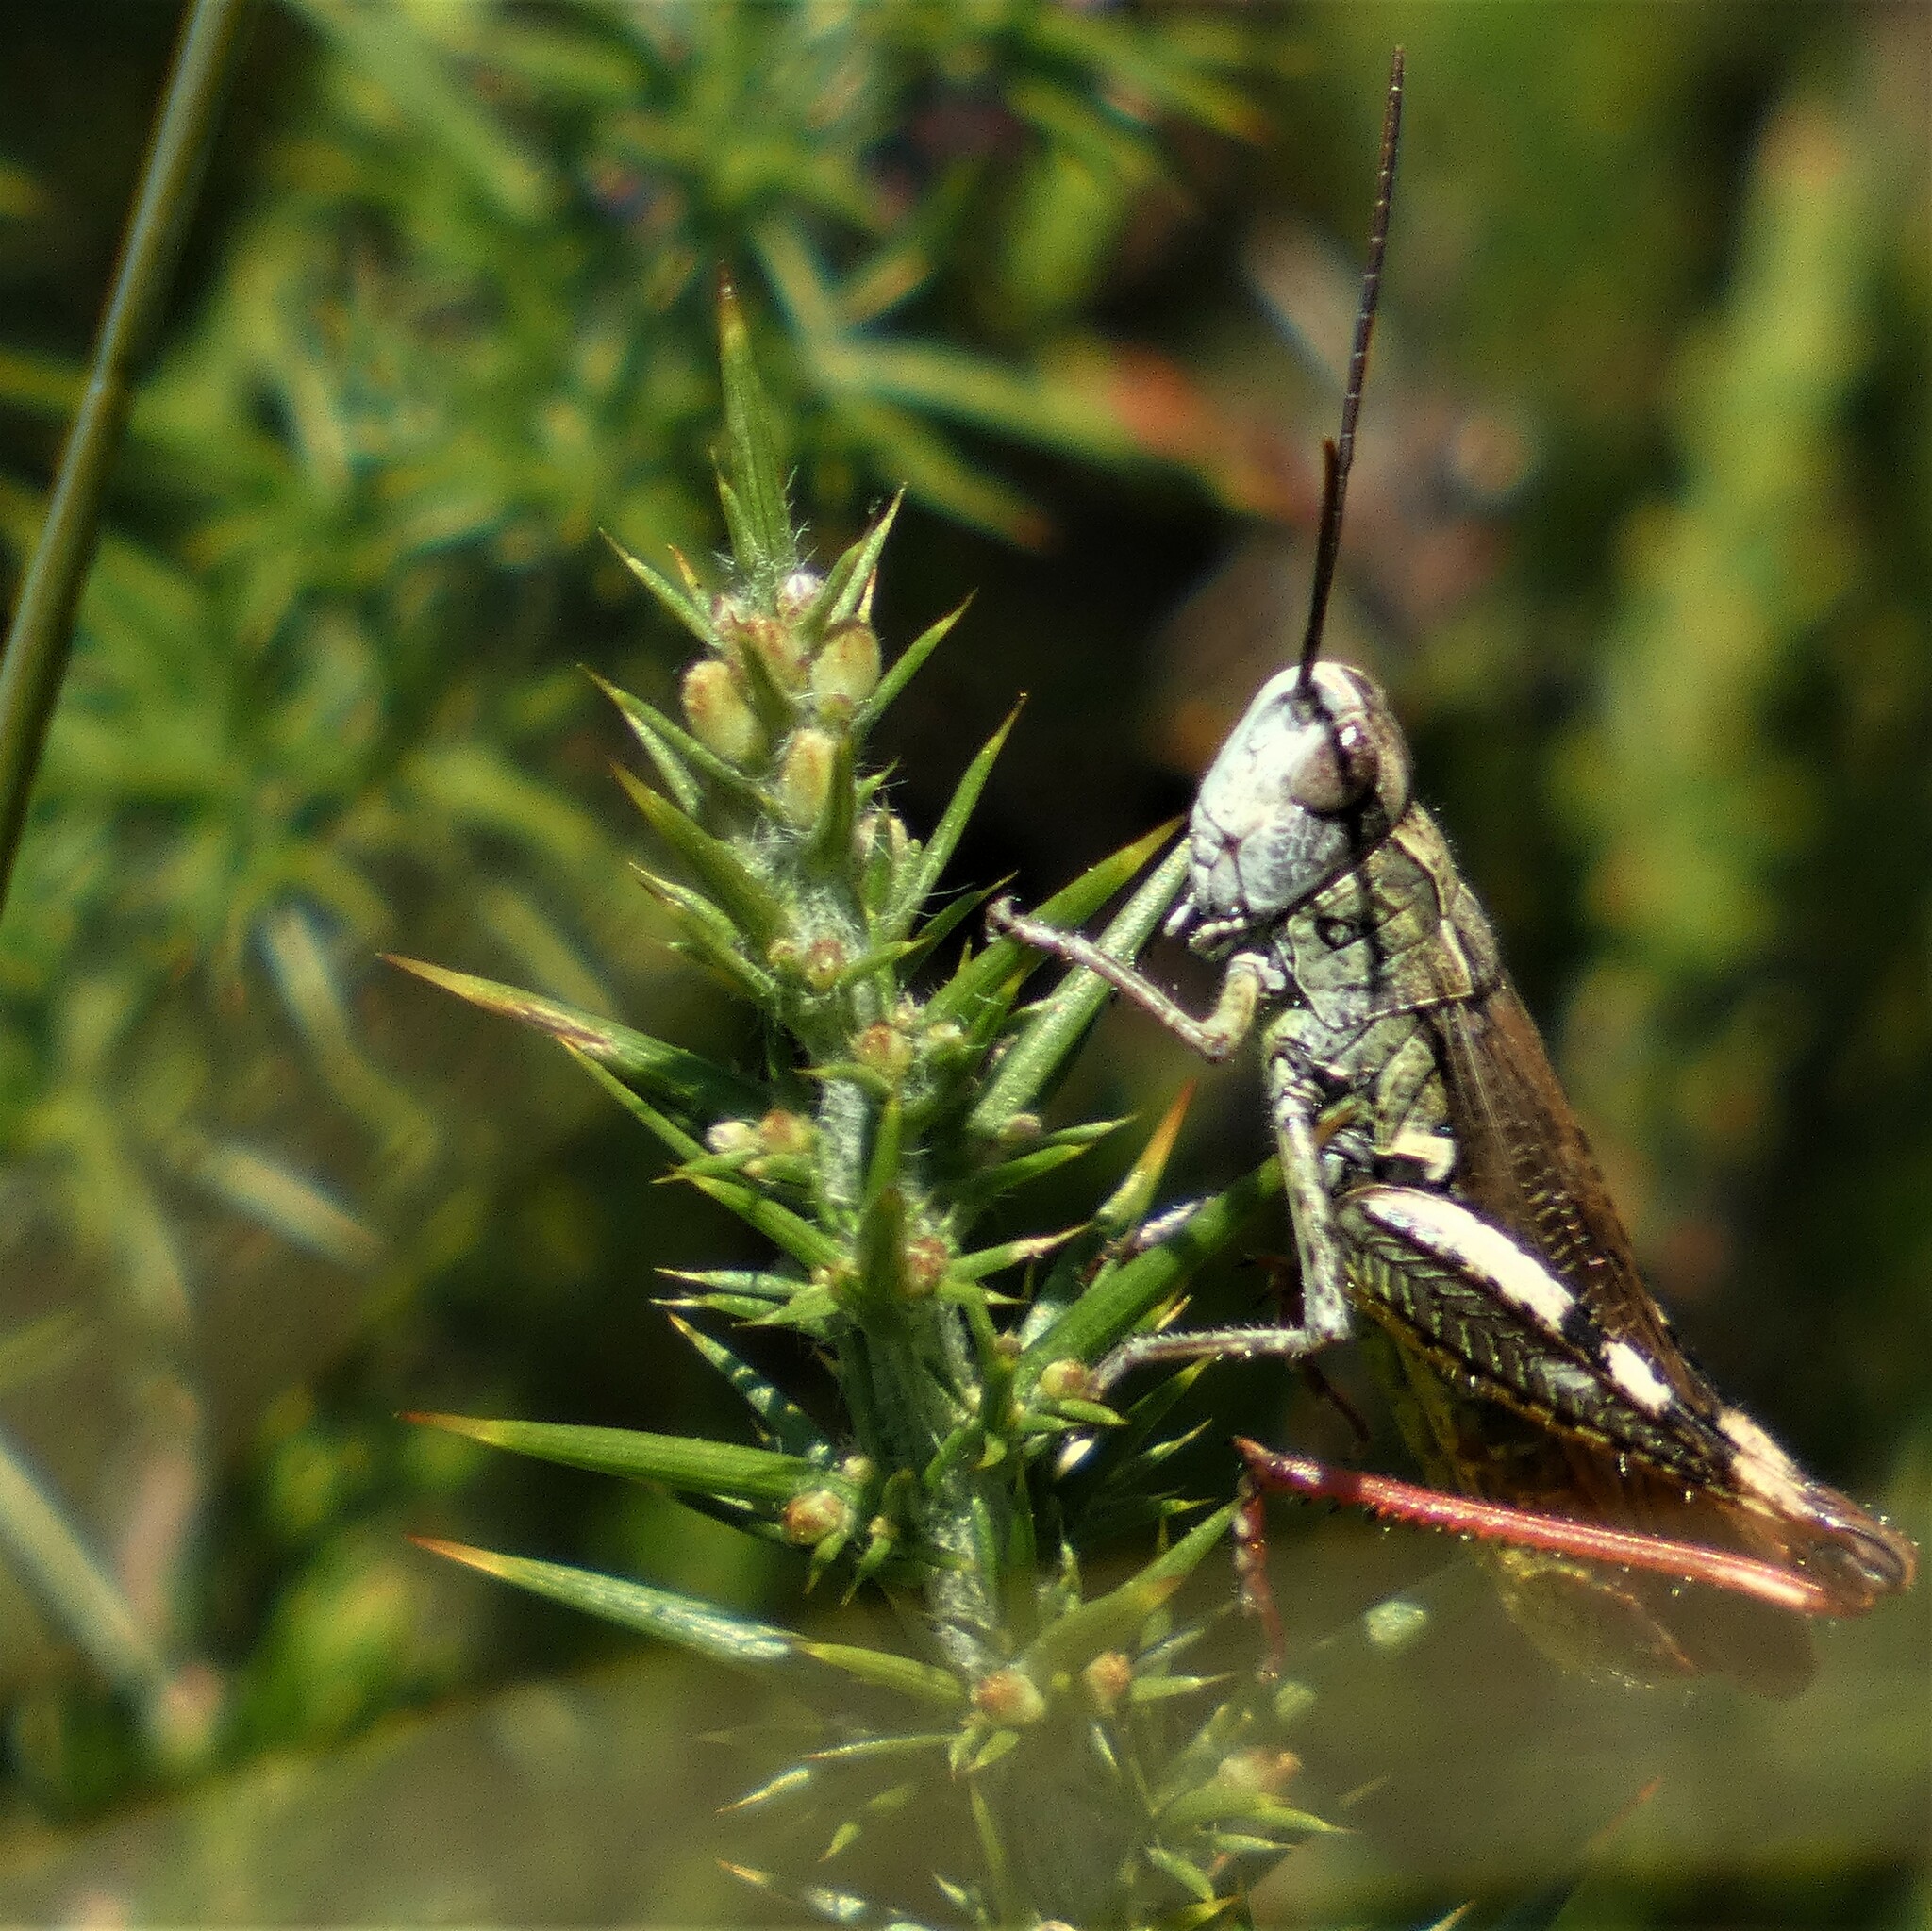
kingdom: Animalia
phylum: Arthropoda
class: Insecta
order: Orthoptera
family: Acrididae
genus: Chorthippus
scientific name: Chorthippus binotatus
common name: Two-marked grasshopper
